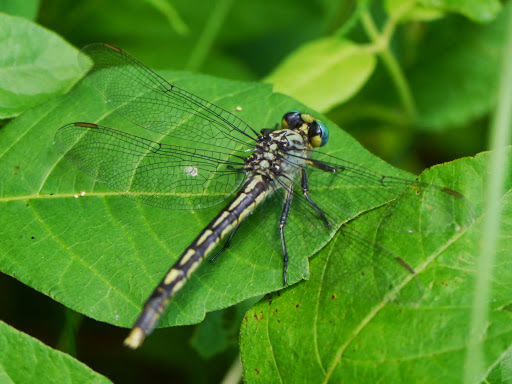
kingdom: Animalia
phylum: Arthropoda
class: Insecta
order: Odonata
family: Gomphidae
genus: Arigomphus
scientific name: Arigomphus villosipes
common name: Unicorn clubtail
